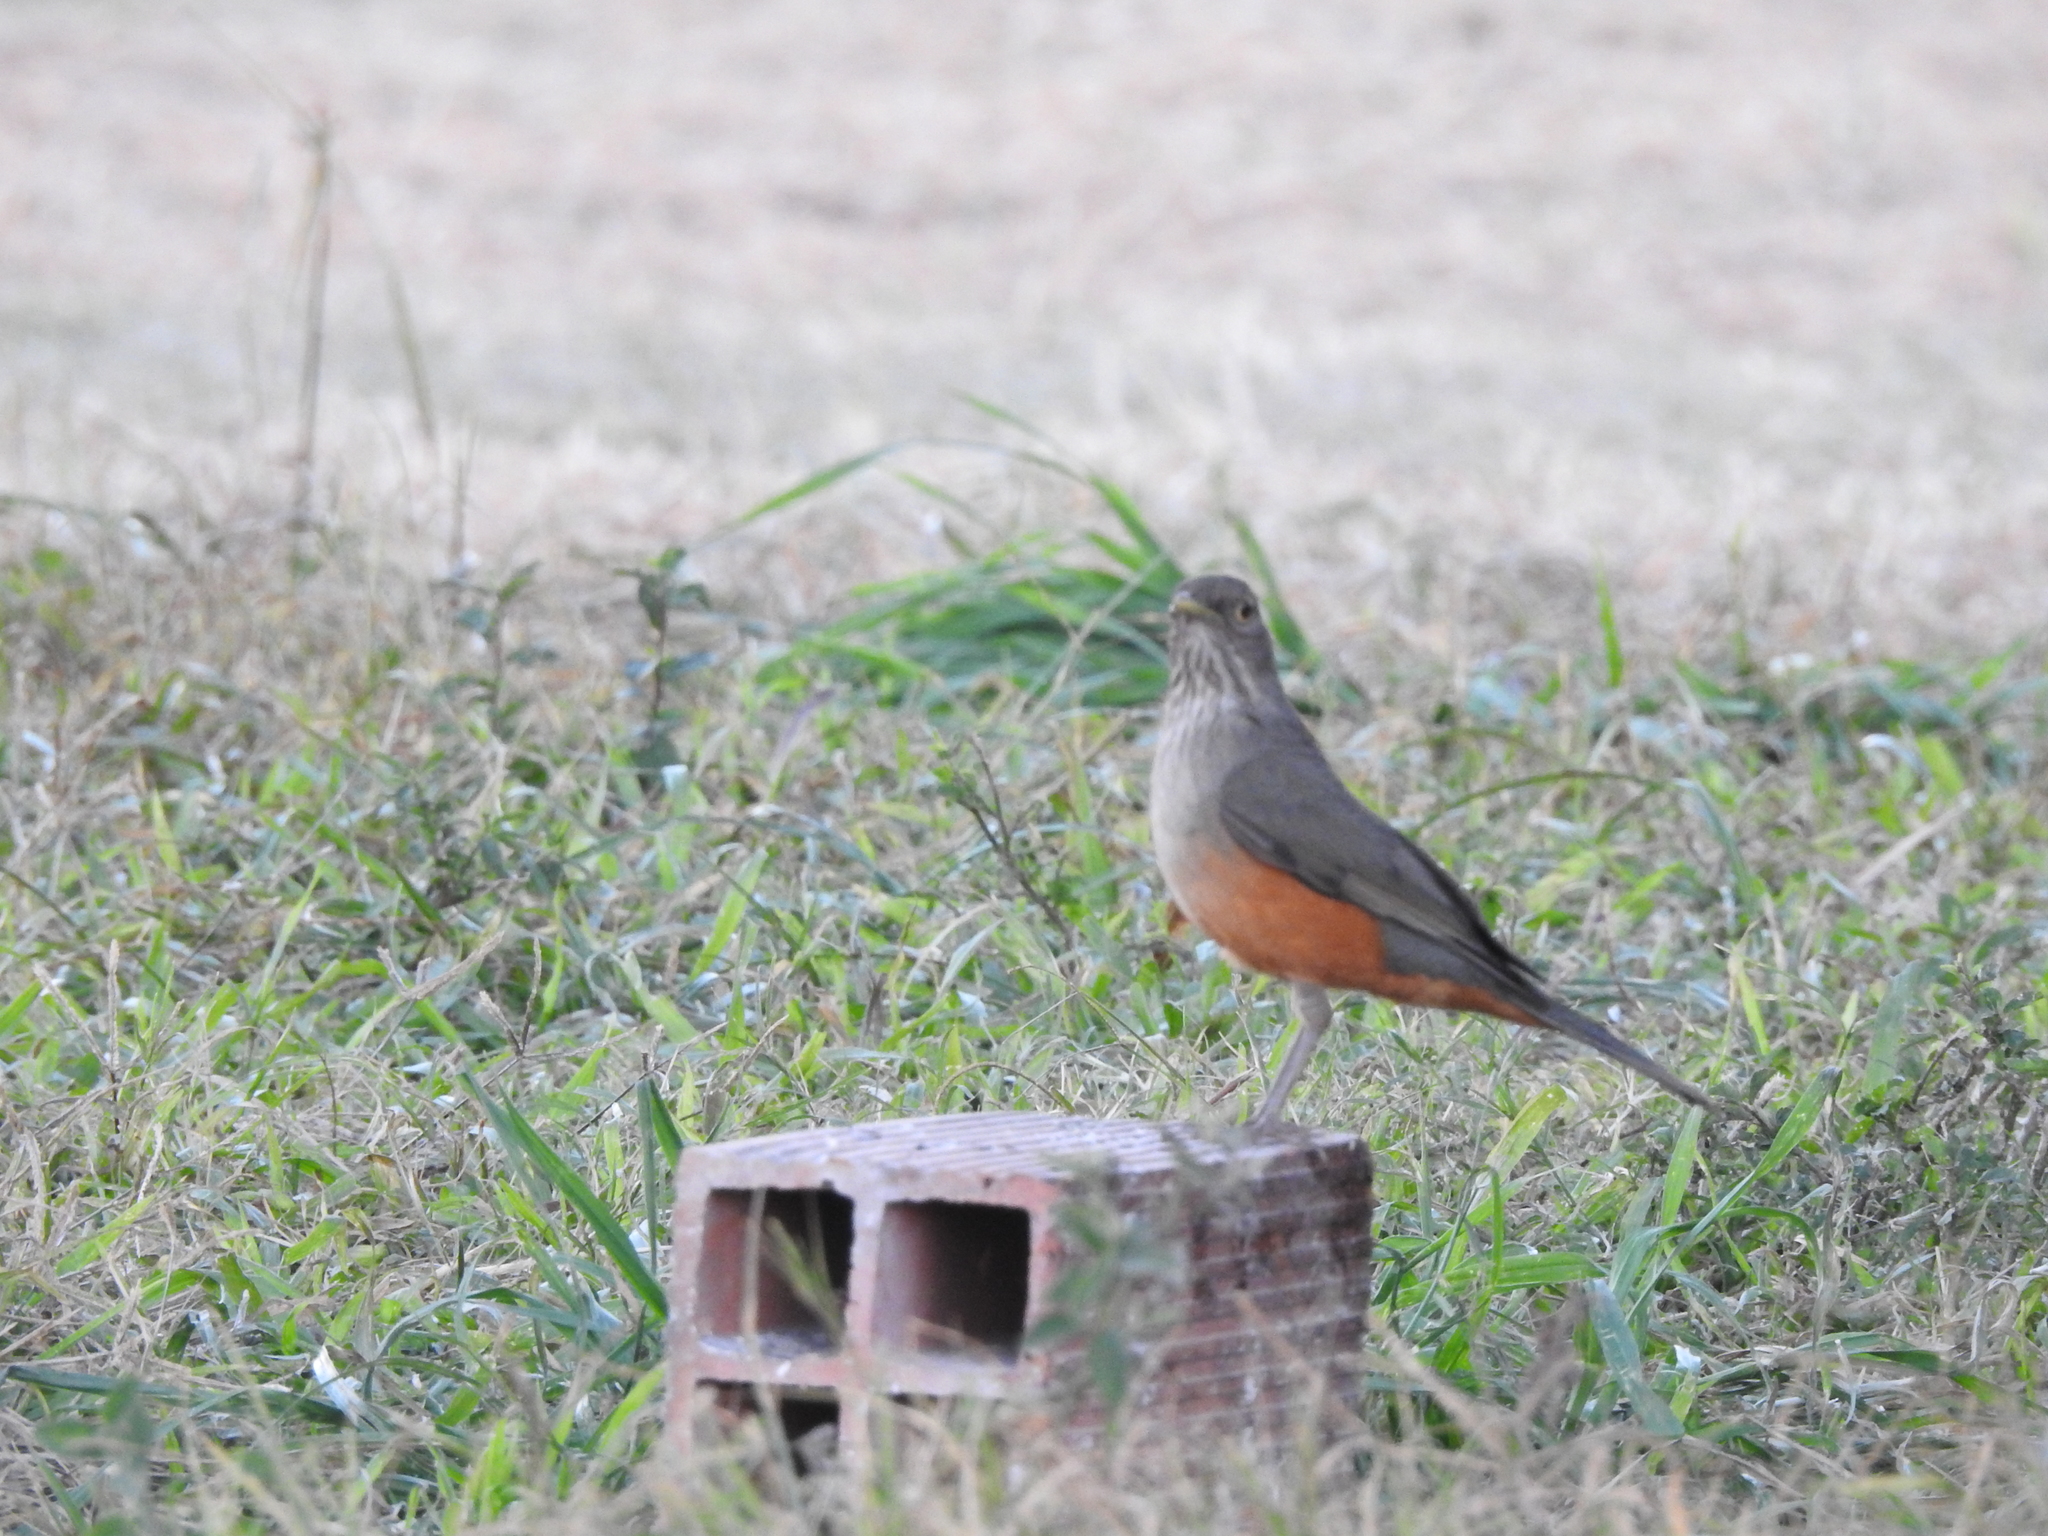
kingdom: Animalia
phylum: Chordata
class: Aves
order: Passeriformes
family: Turdidae
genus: Turdus
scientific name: Turdus rufiventris
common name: Rufous-bellied thrush
